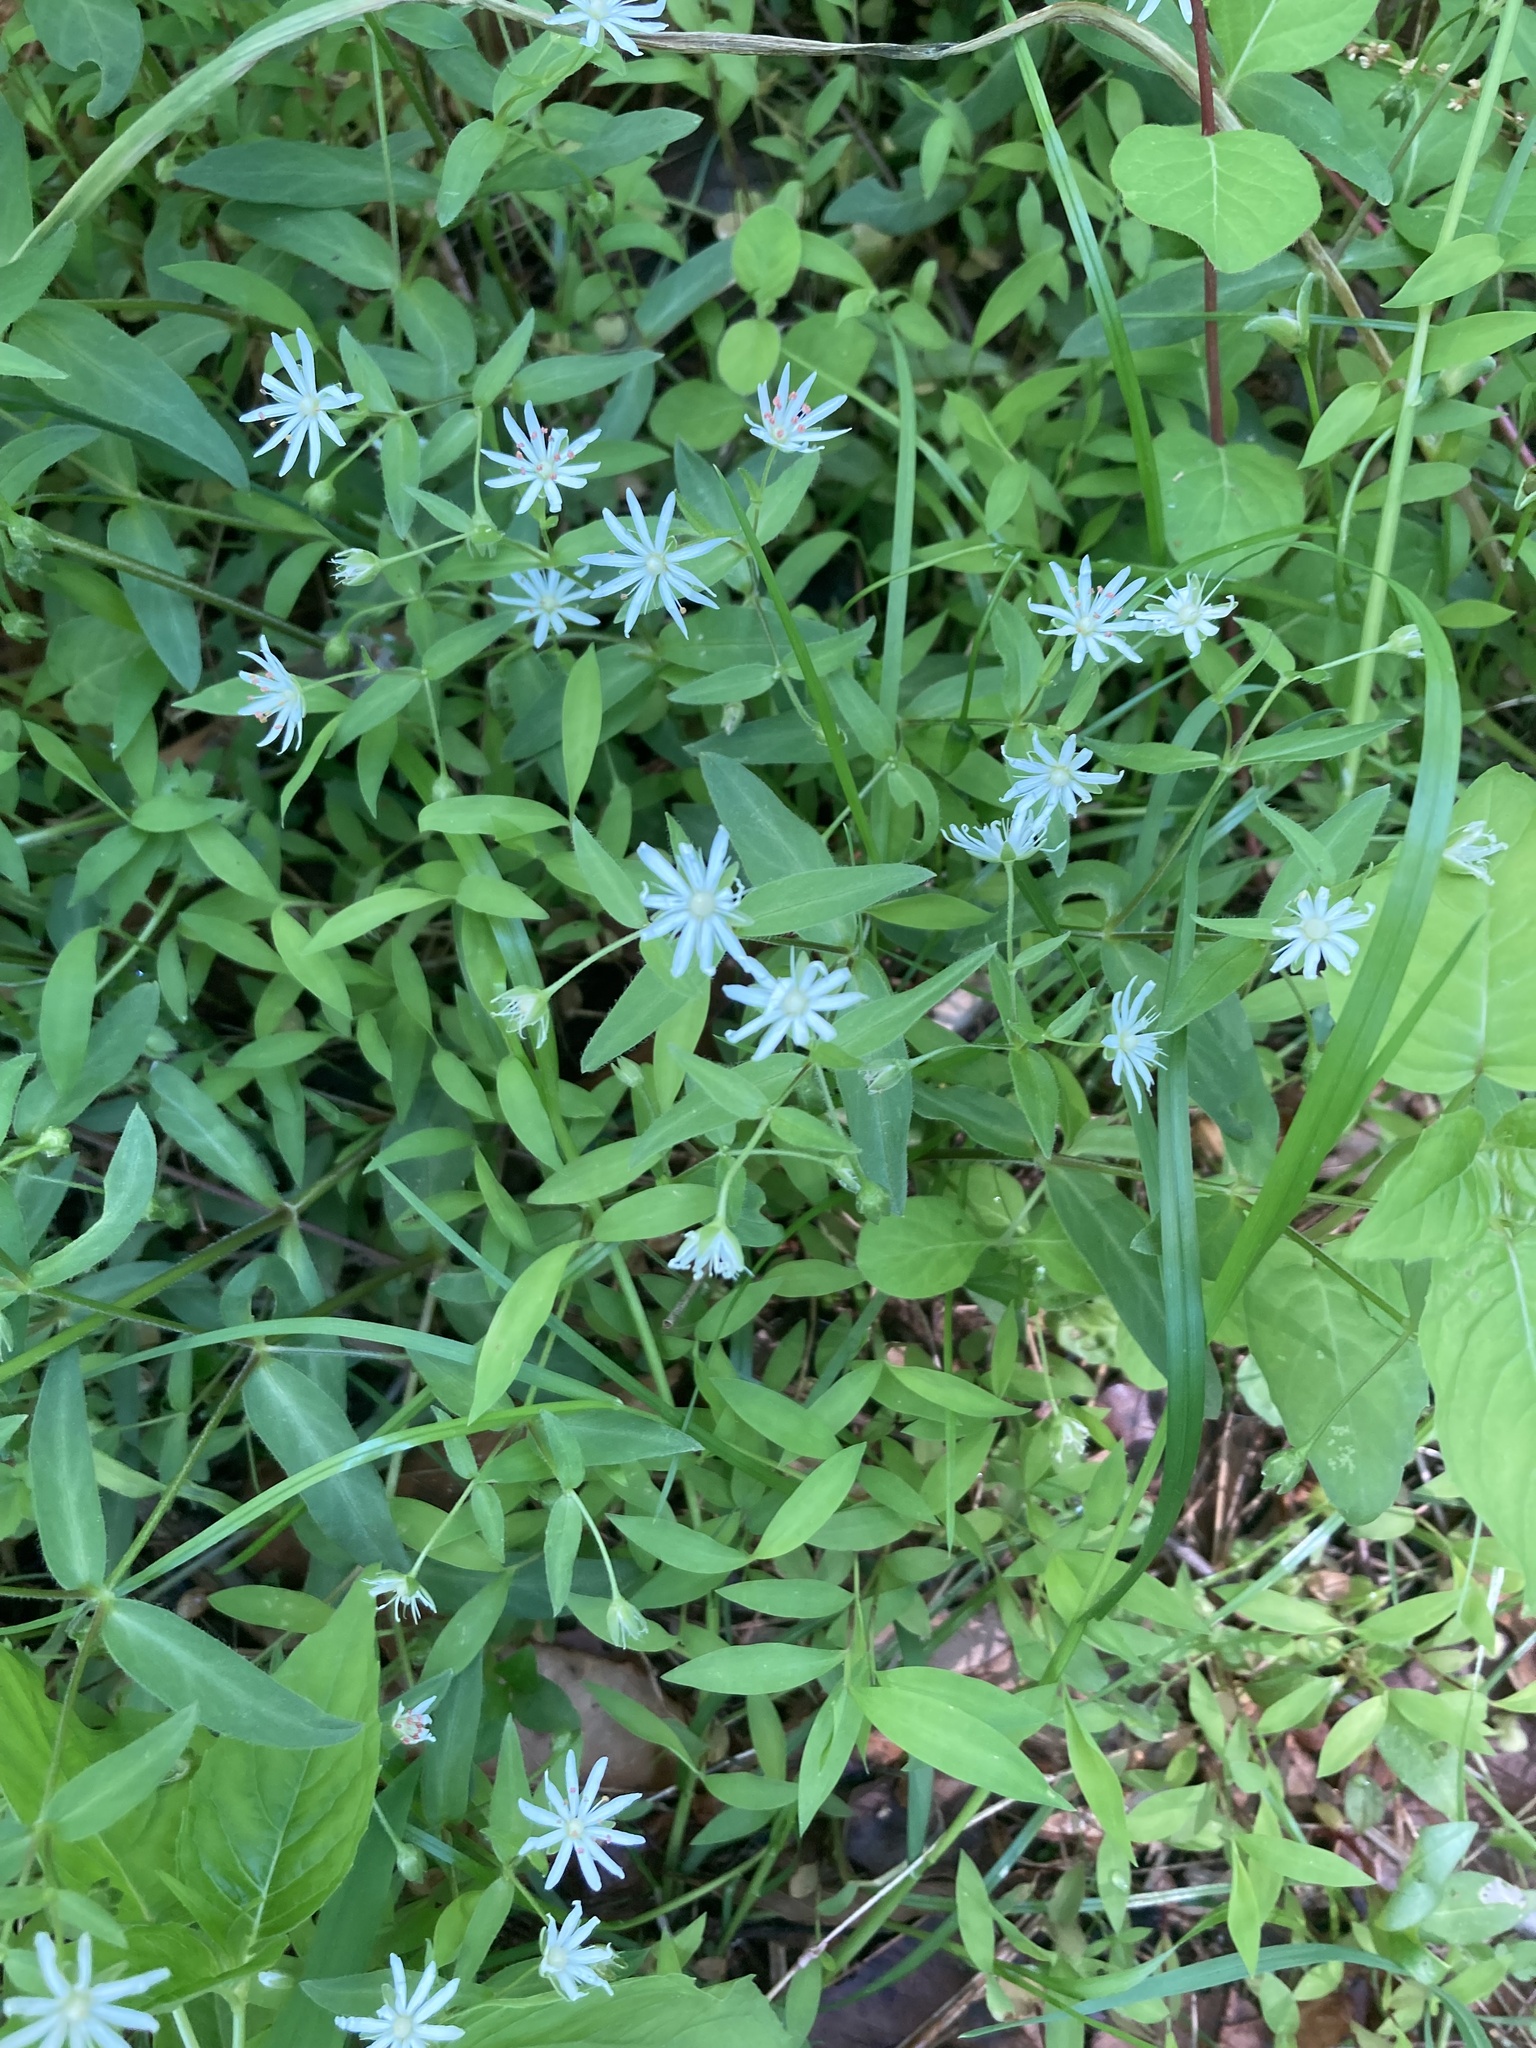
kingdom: Plantae
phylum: Tracheophyta
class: Magnoliopsida
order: Caryophyllales
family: Caryophyllaceae
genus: Stellaria
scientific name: Stellaria pubera
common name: Star chickweed
